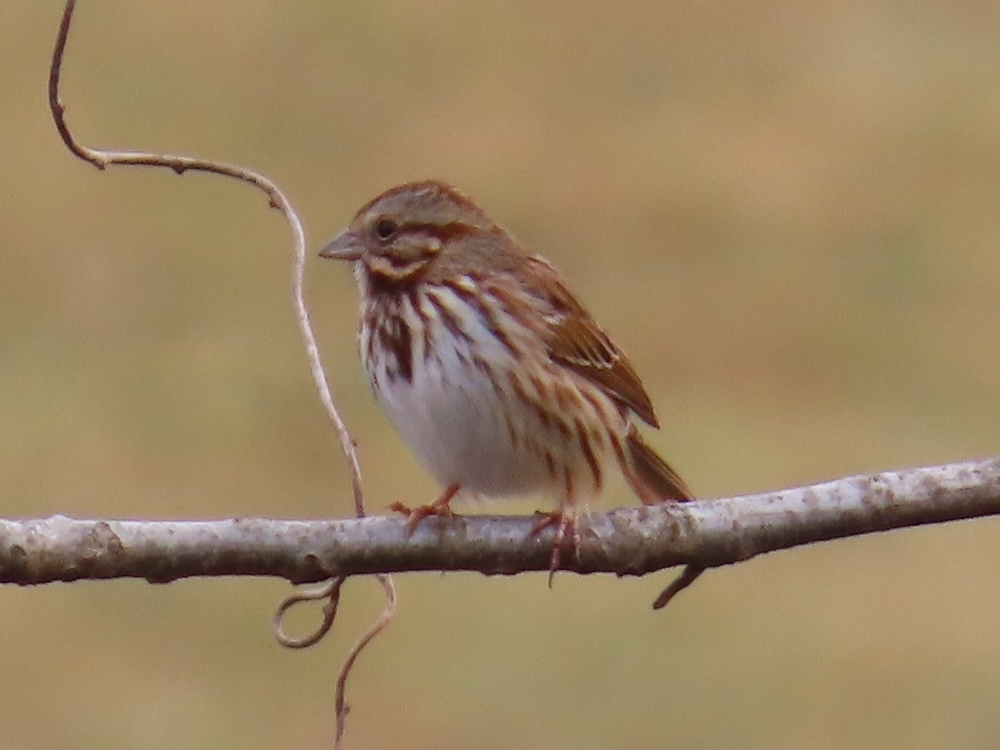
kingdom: Animalia
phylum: Chordata
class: Aves
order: Passeriformes
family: Passerellidae
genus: Melospiza
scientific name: Melospiza melodia
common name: Song sparrow
